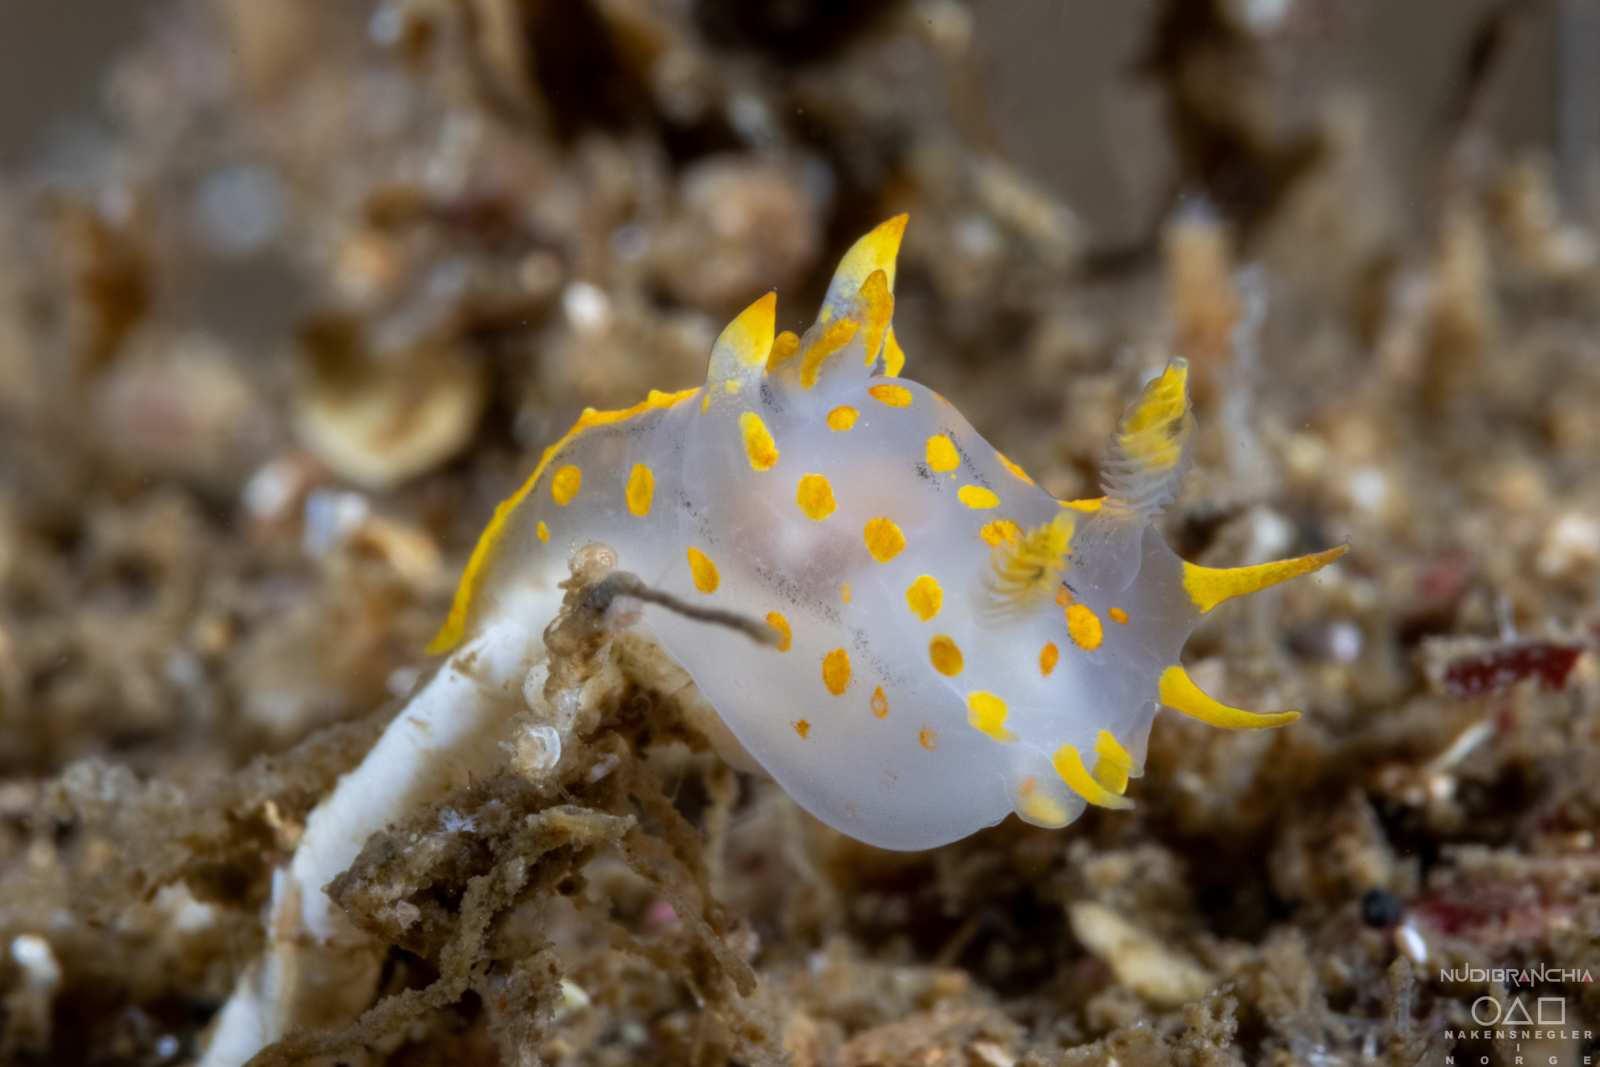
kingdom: Animalia
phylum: Mollusca
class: Gastropoda
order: Nudibranchia
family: Polyceridae
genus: Polycera
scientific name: Polycera quadrilineata
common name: Four-striped polycera
